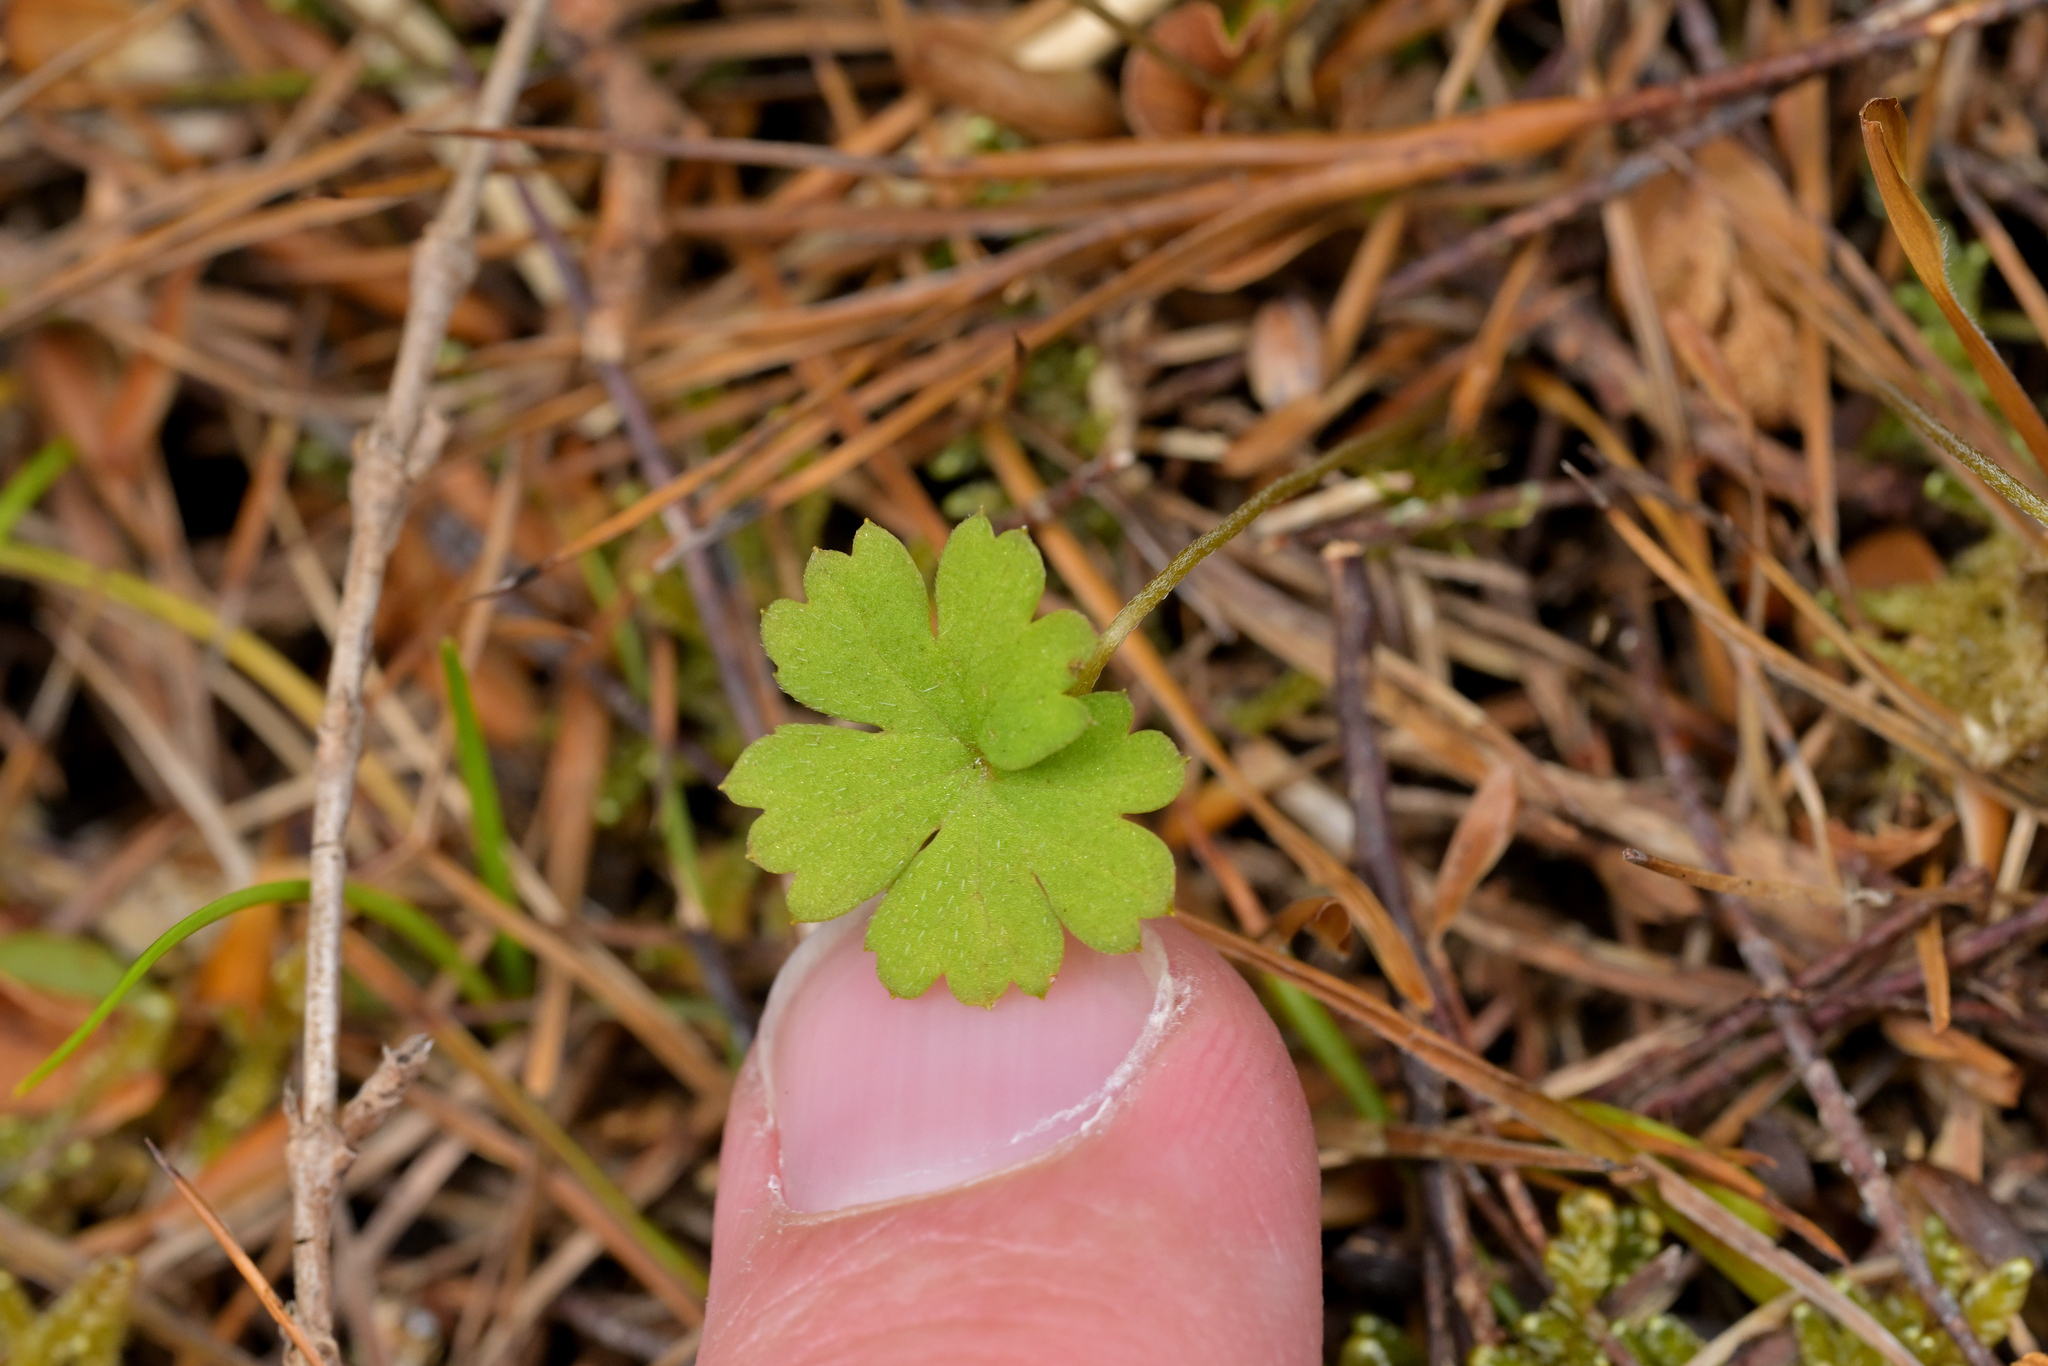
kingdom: Plantae
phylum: Tracheophyta
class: Magnoliopsida
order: Geraniales
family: Geraniaceae
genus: Geranium
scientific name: Geranium
